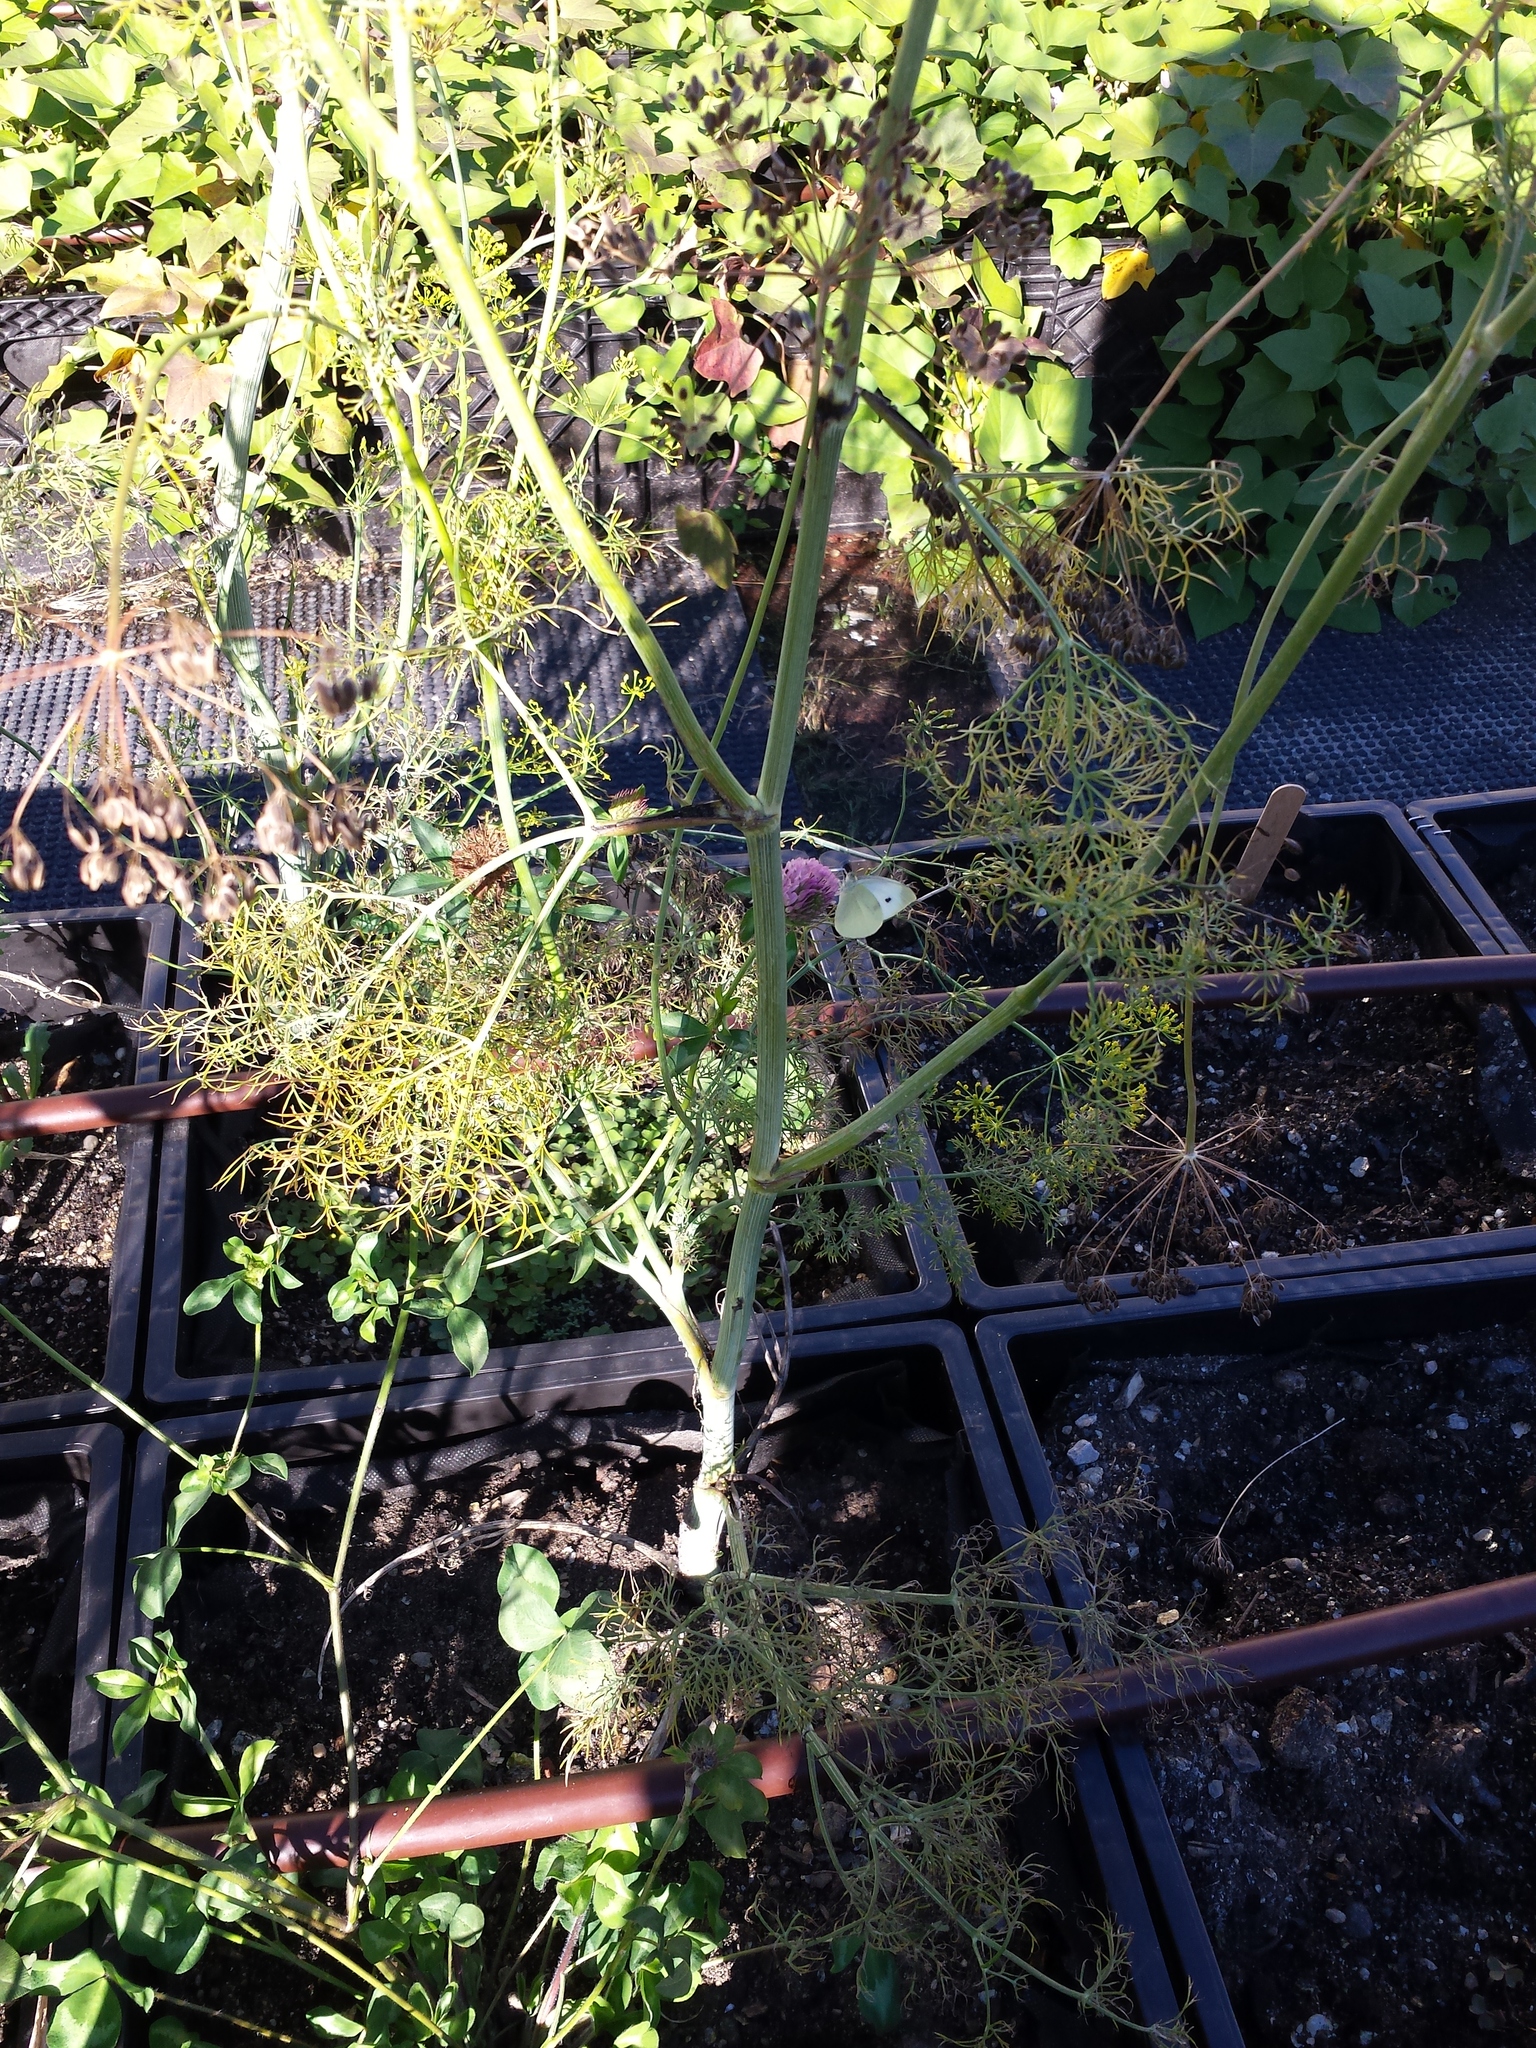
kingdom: Animalia
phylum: Arthropoda
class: Insecta
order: Lepidoptera
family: Pieridae
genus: Pieris
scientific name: Pieris rapae
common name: Small white
